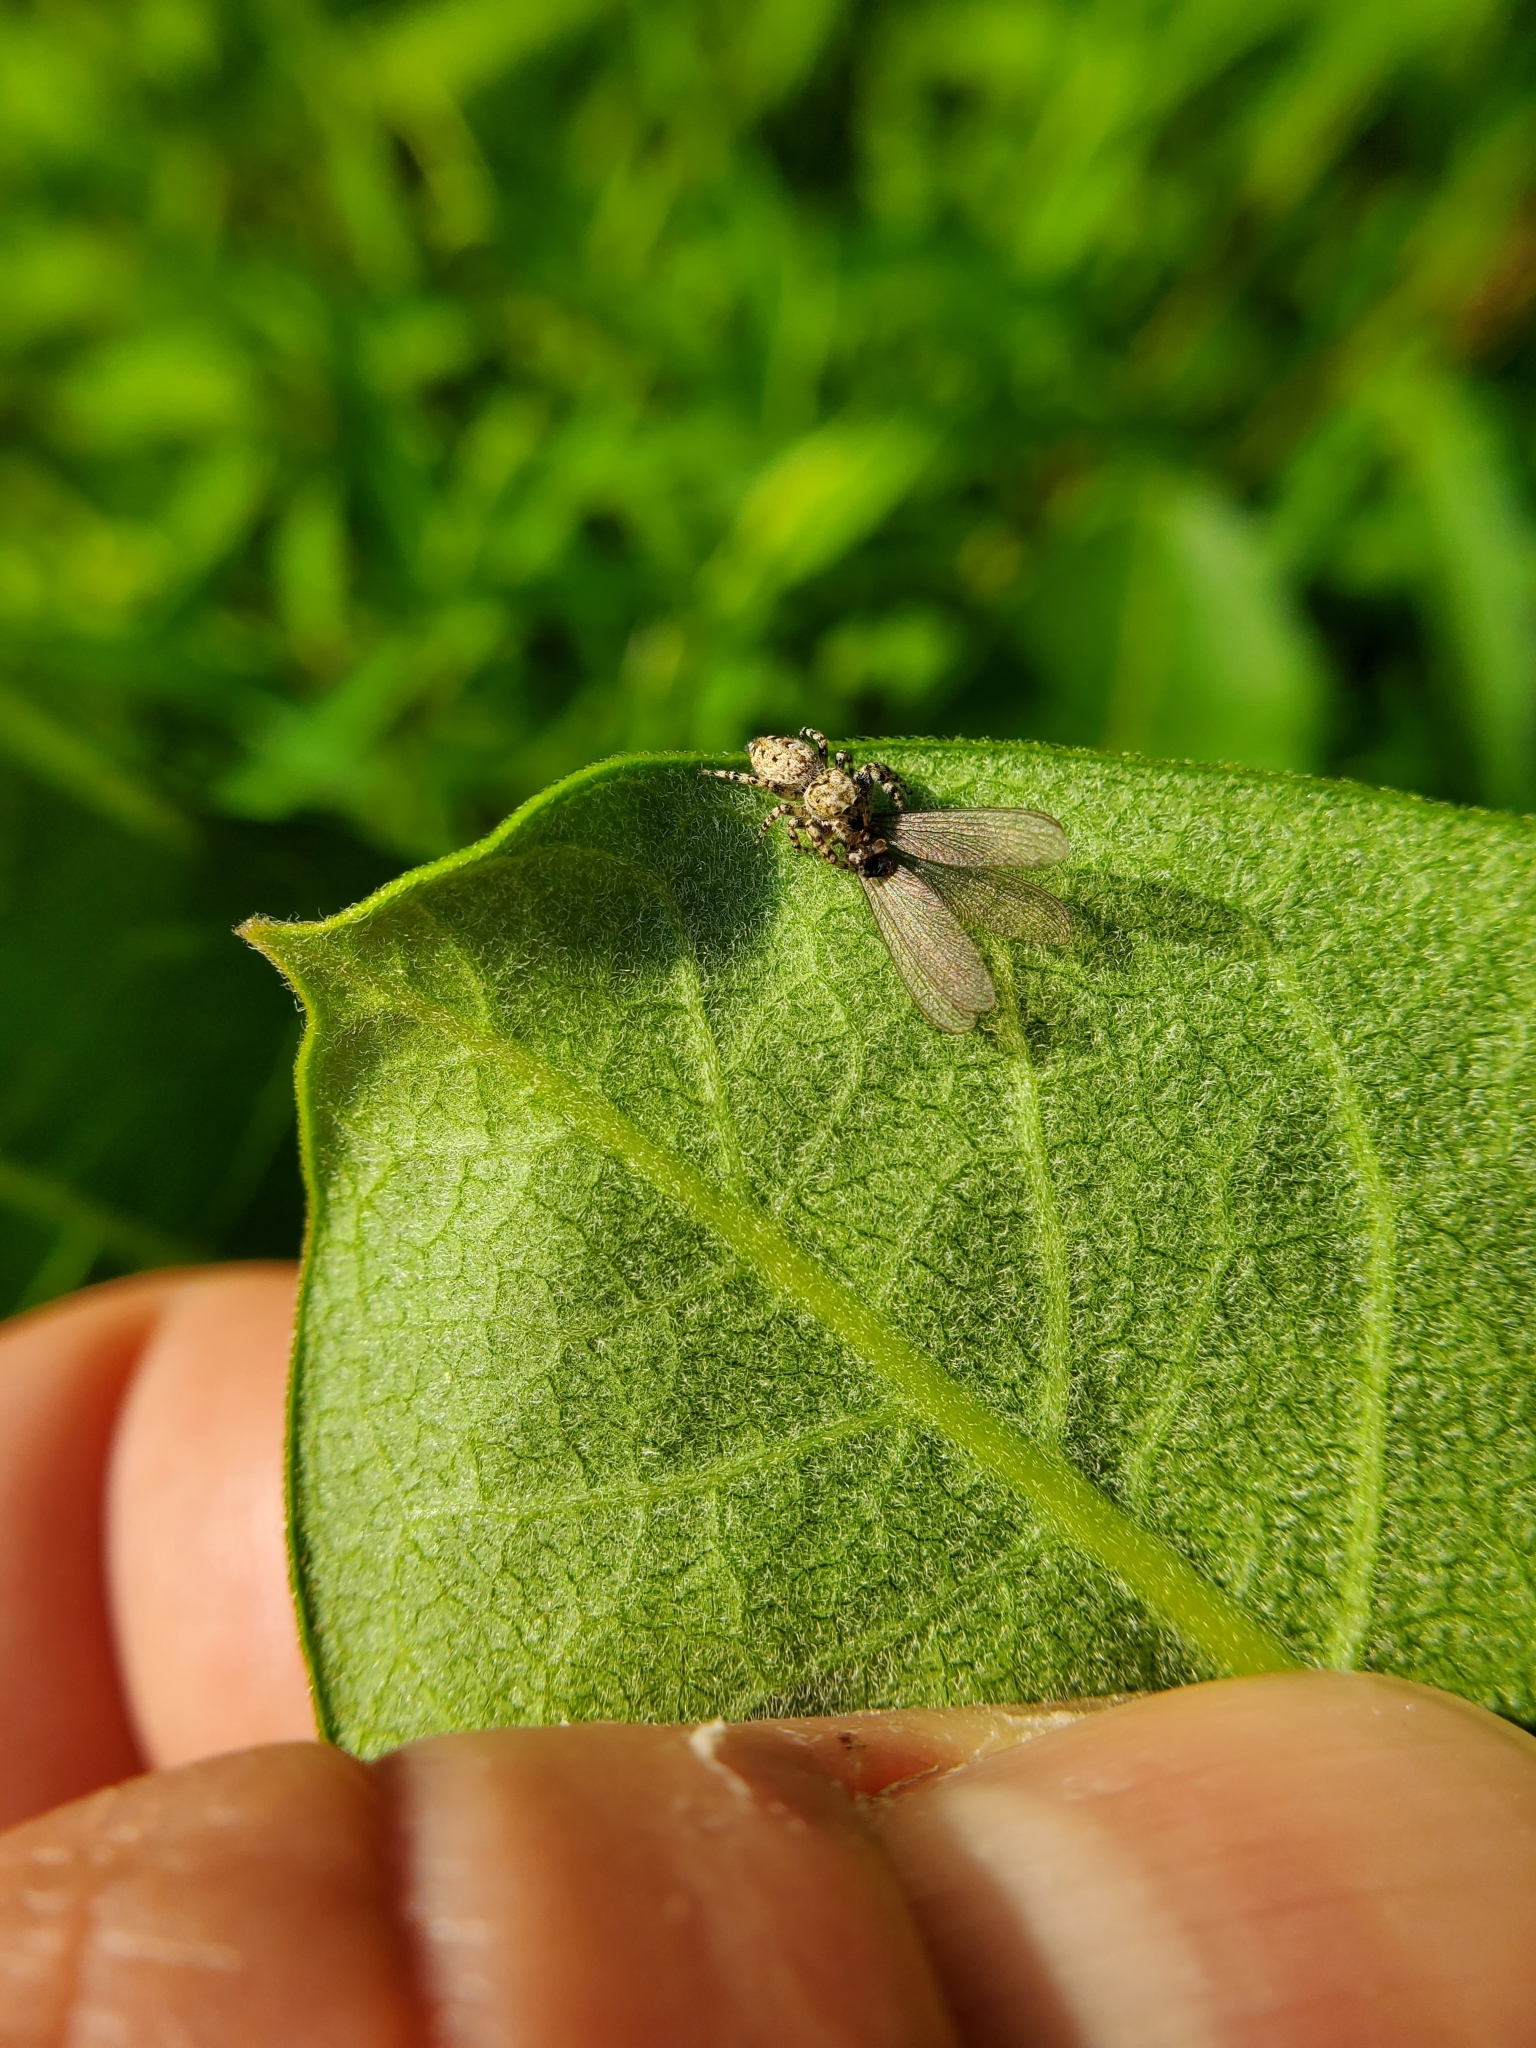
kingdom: Animalia
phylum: Arthropoda
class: Arachnida
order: Araneae
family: Salticidae
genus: Pelegrina
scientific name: Pelegrina galathea
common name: Jumping spiders
